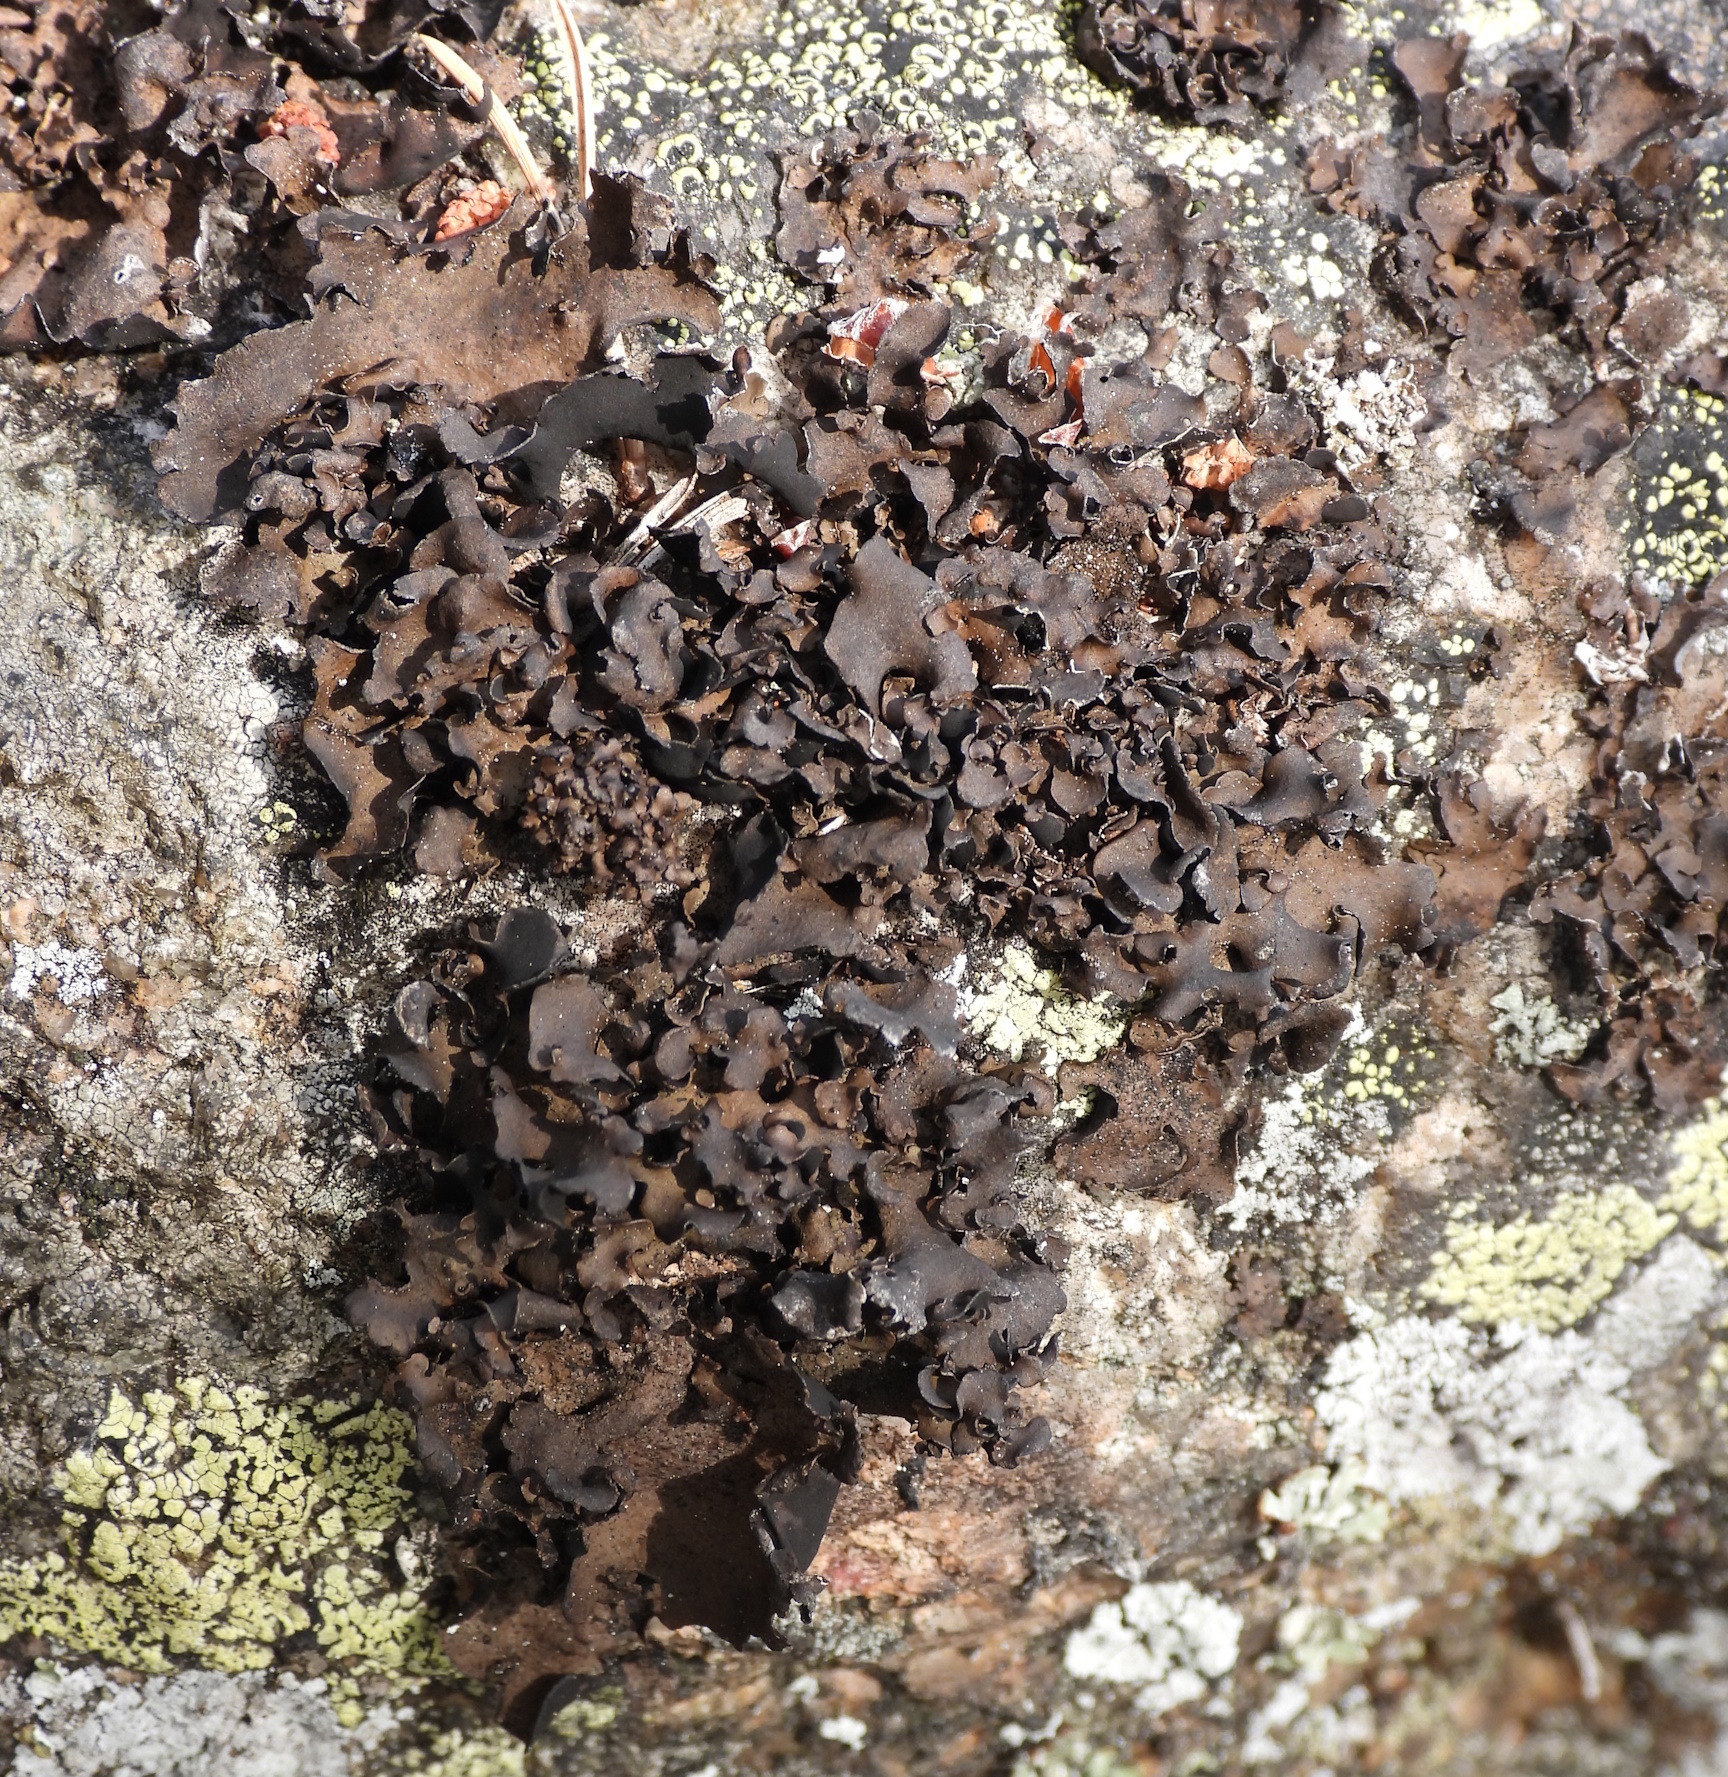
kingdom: Fungi
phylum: Ascomycota
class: Lecanoromycetes
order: Umbilicariales
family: Umbilicariaceae
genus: Umbilicaria
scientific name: Umbilicaria polyphylla
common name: Petalled rocktripe lichen
